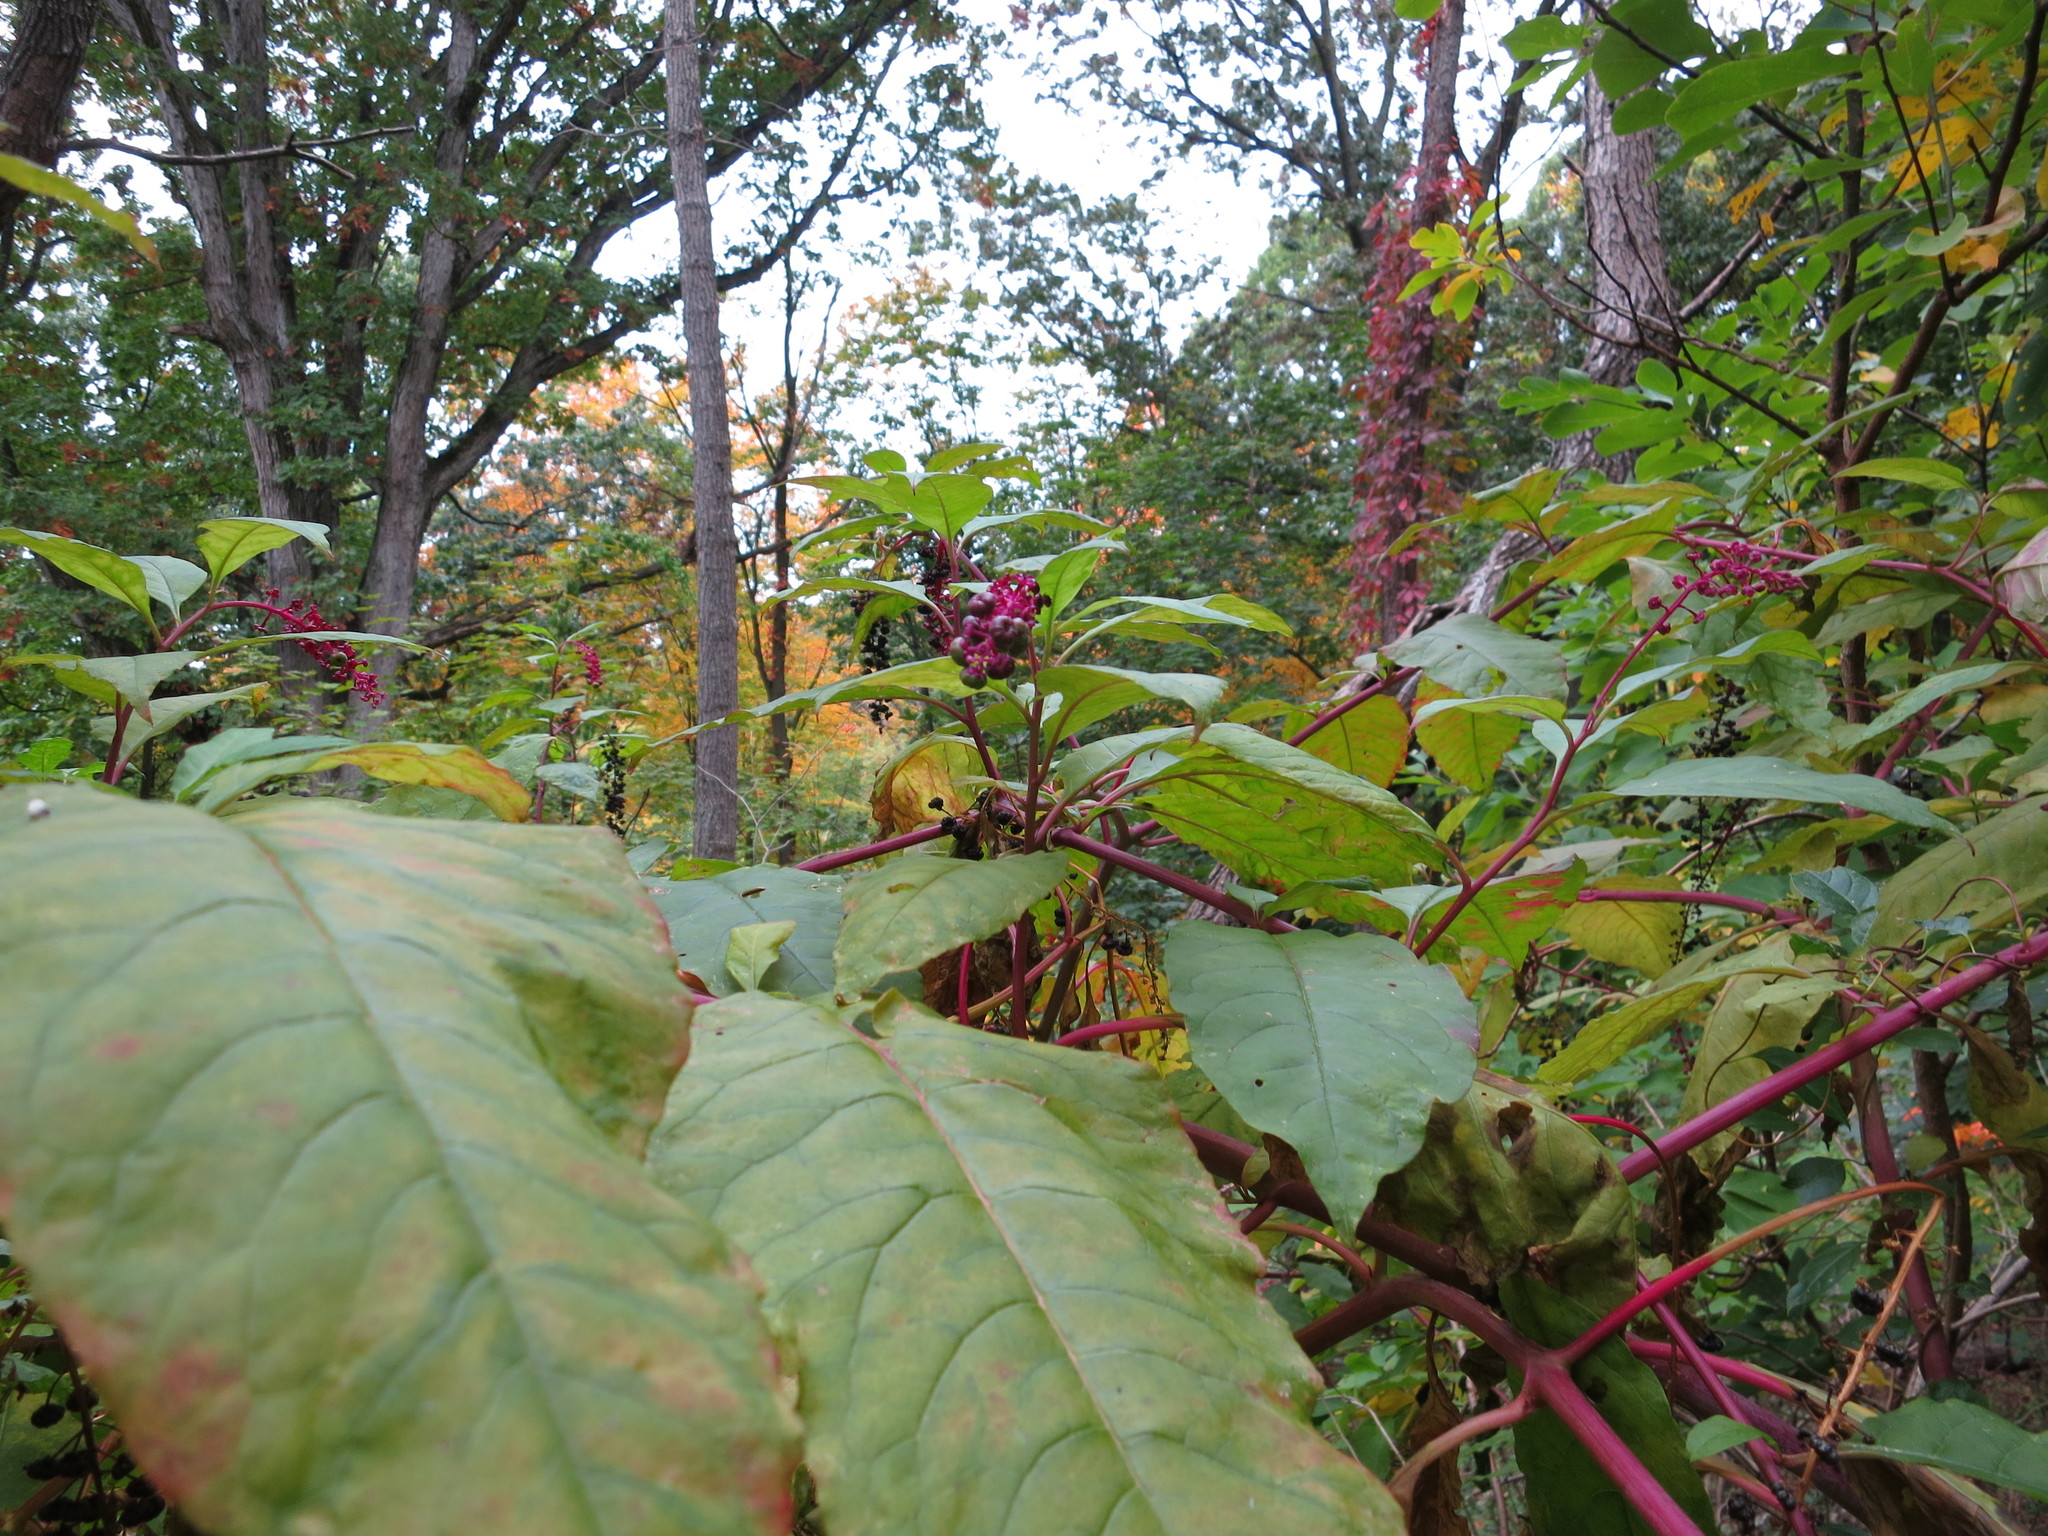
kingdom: Plantae
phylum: Tracheophyta
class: Magnoliopsida
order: Caryophyllales
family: Phytolaccaceae
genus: Phytolacca
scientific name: Phytolacca americana
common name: American pokeweed
